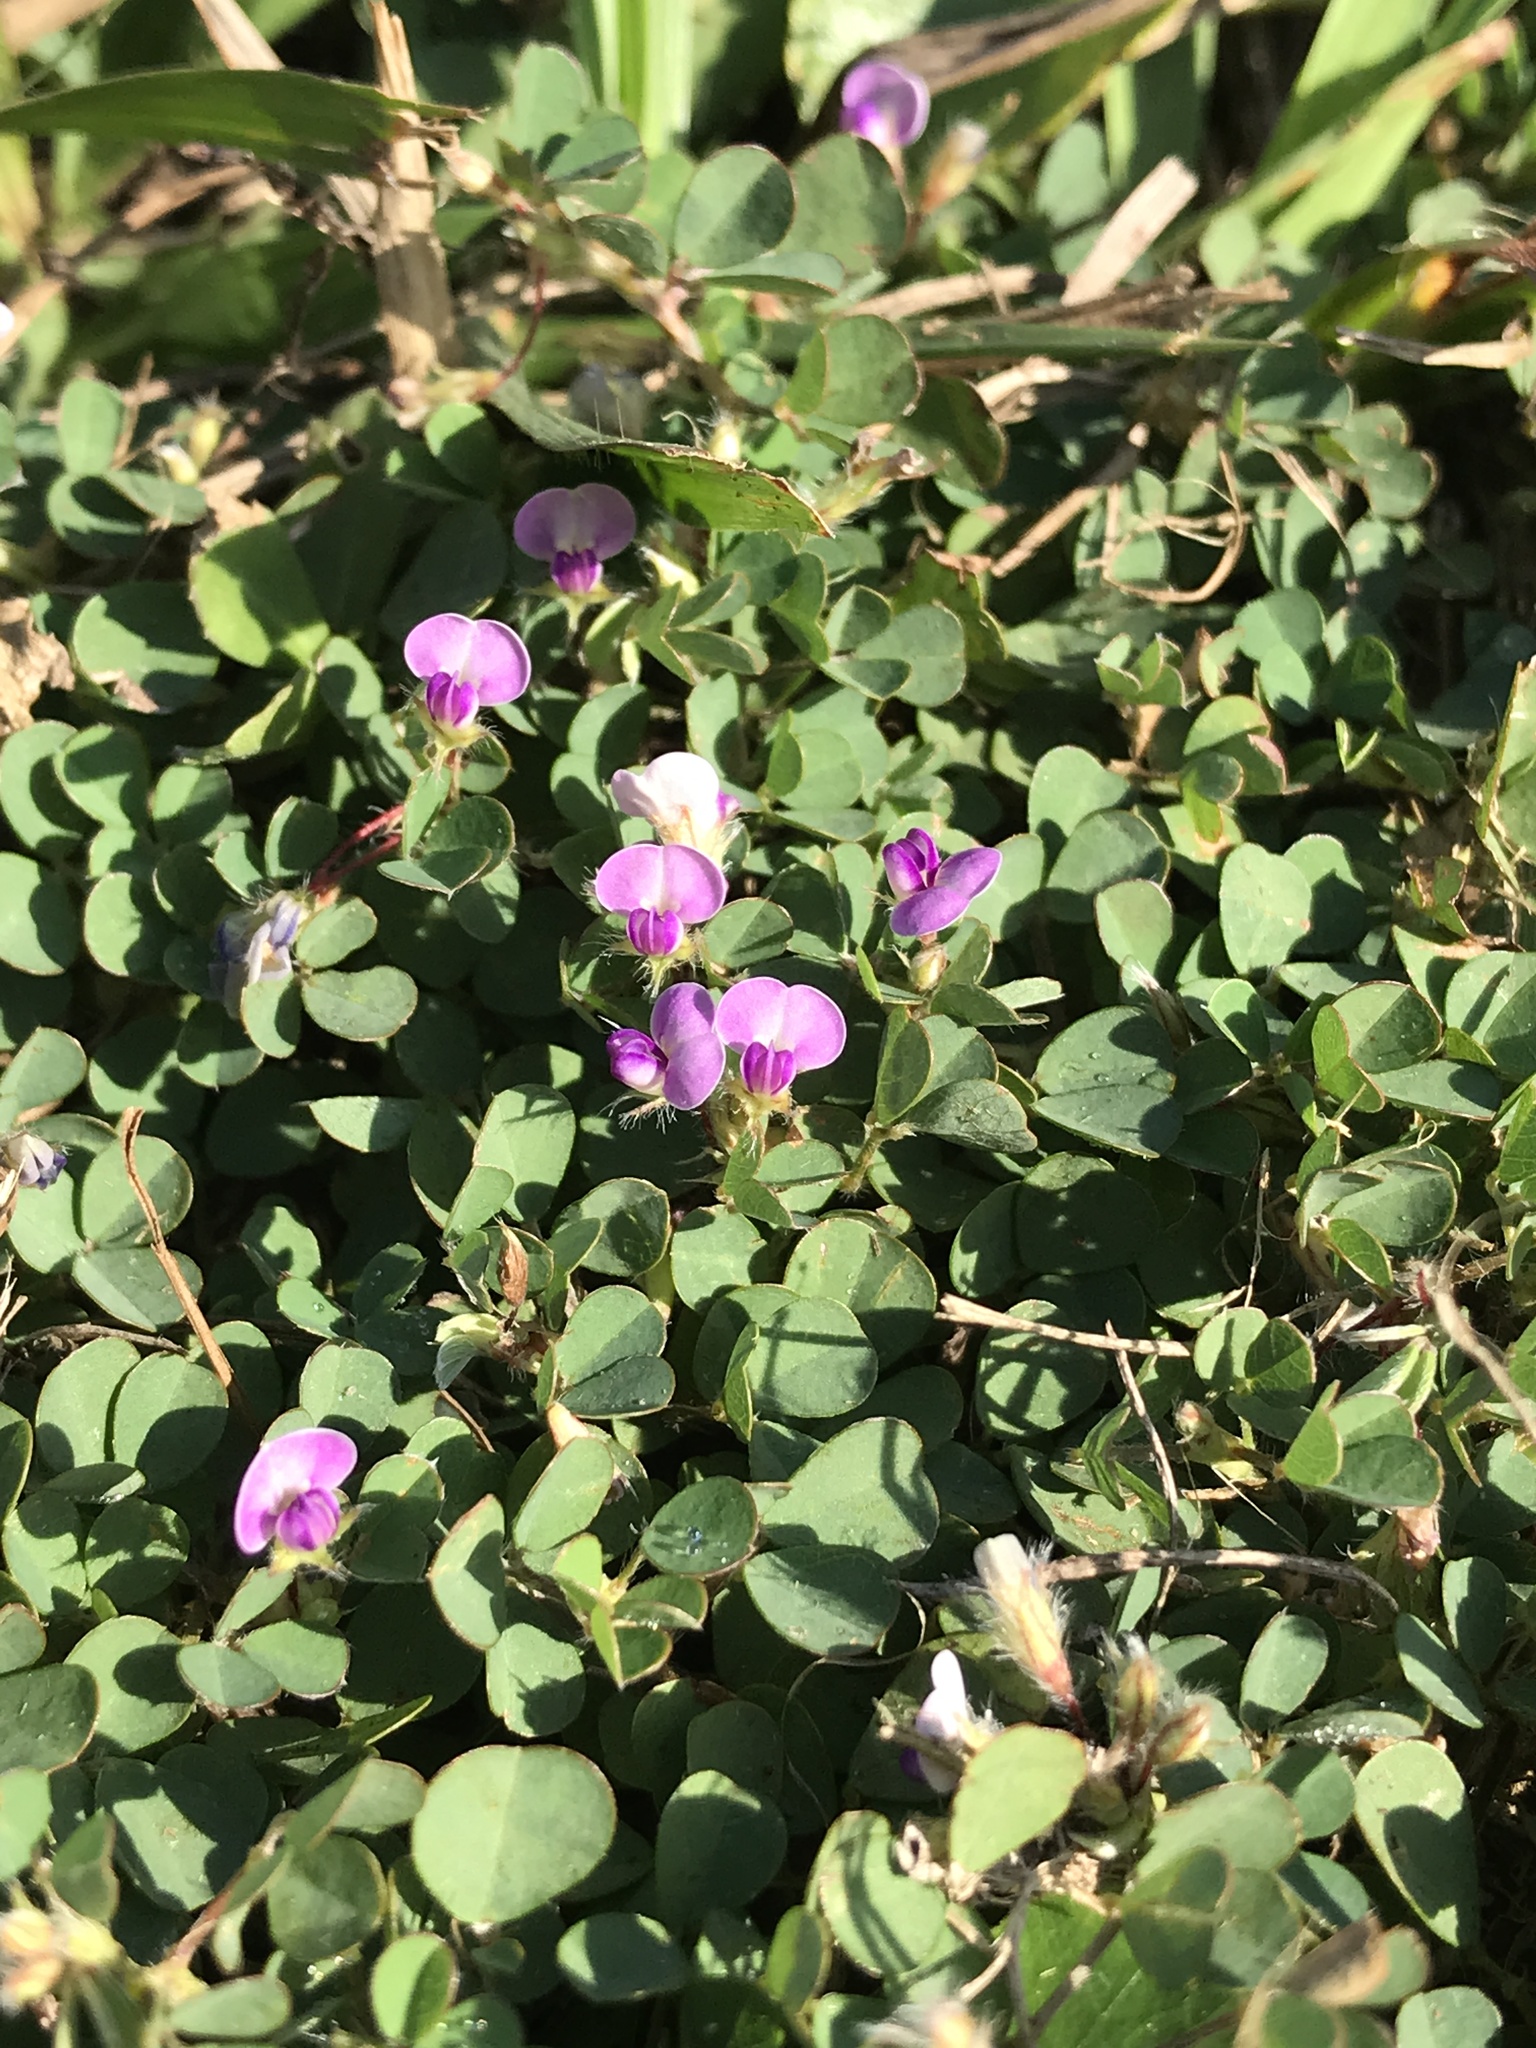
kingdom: Plantae
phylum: Tracheophyta
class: Magnoliopsida
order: Fabales
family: Fabaceae
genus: Grona
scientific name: Grona triflora
